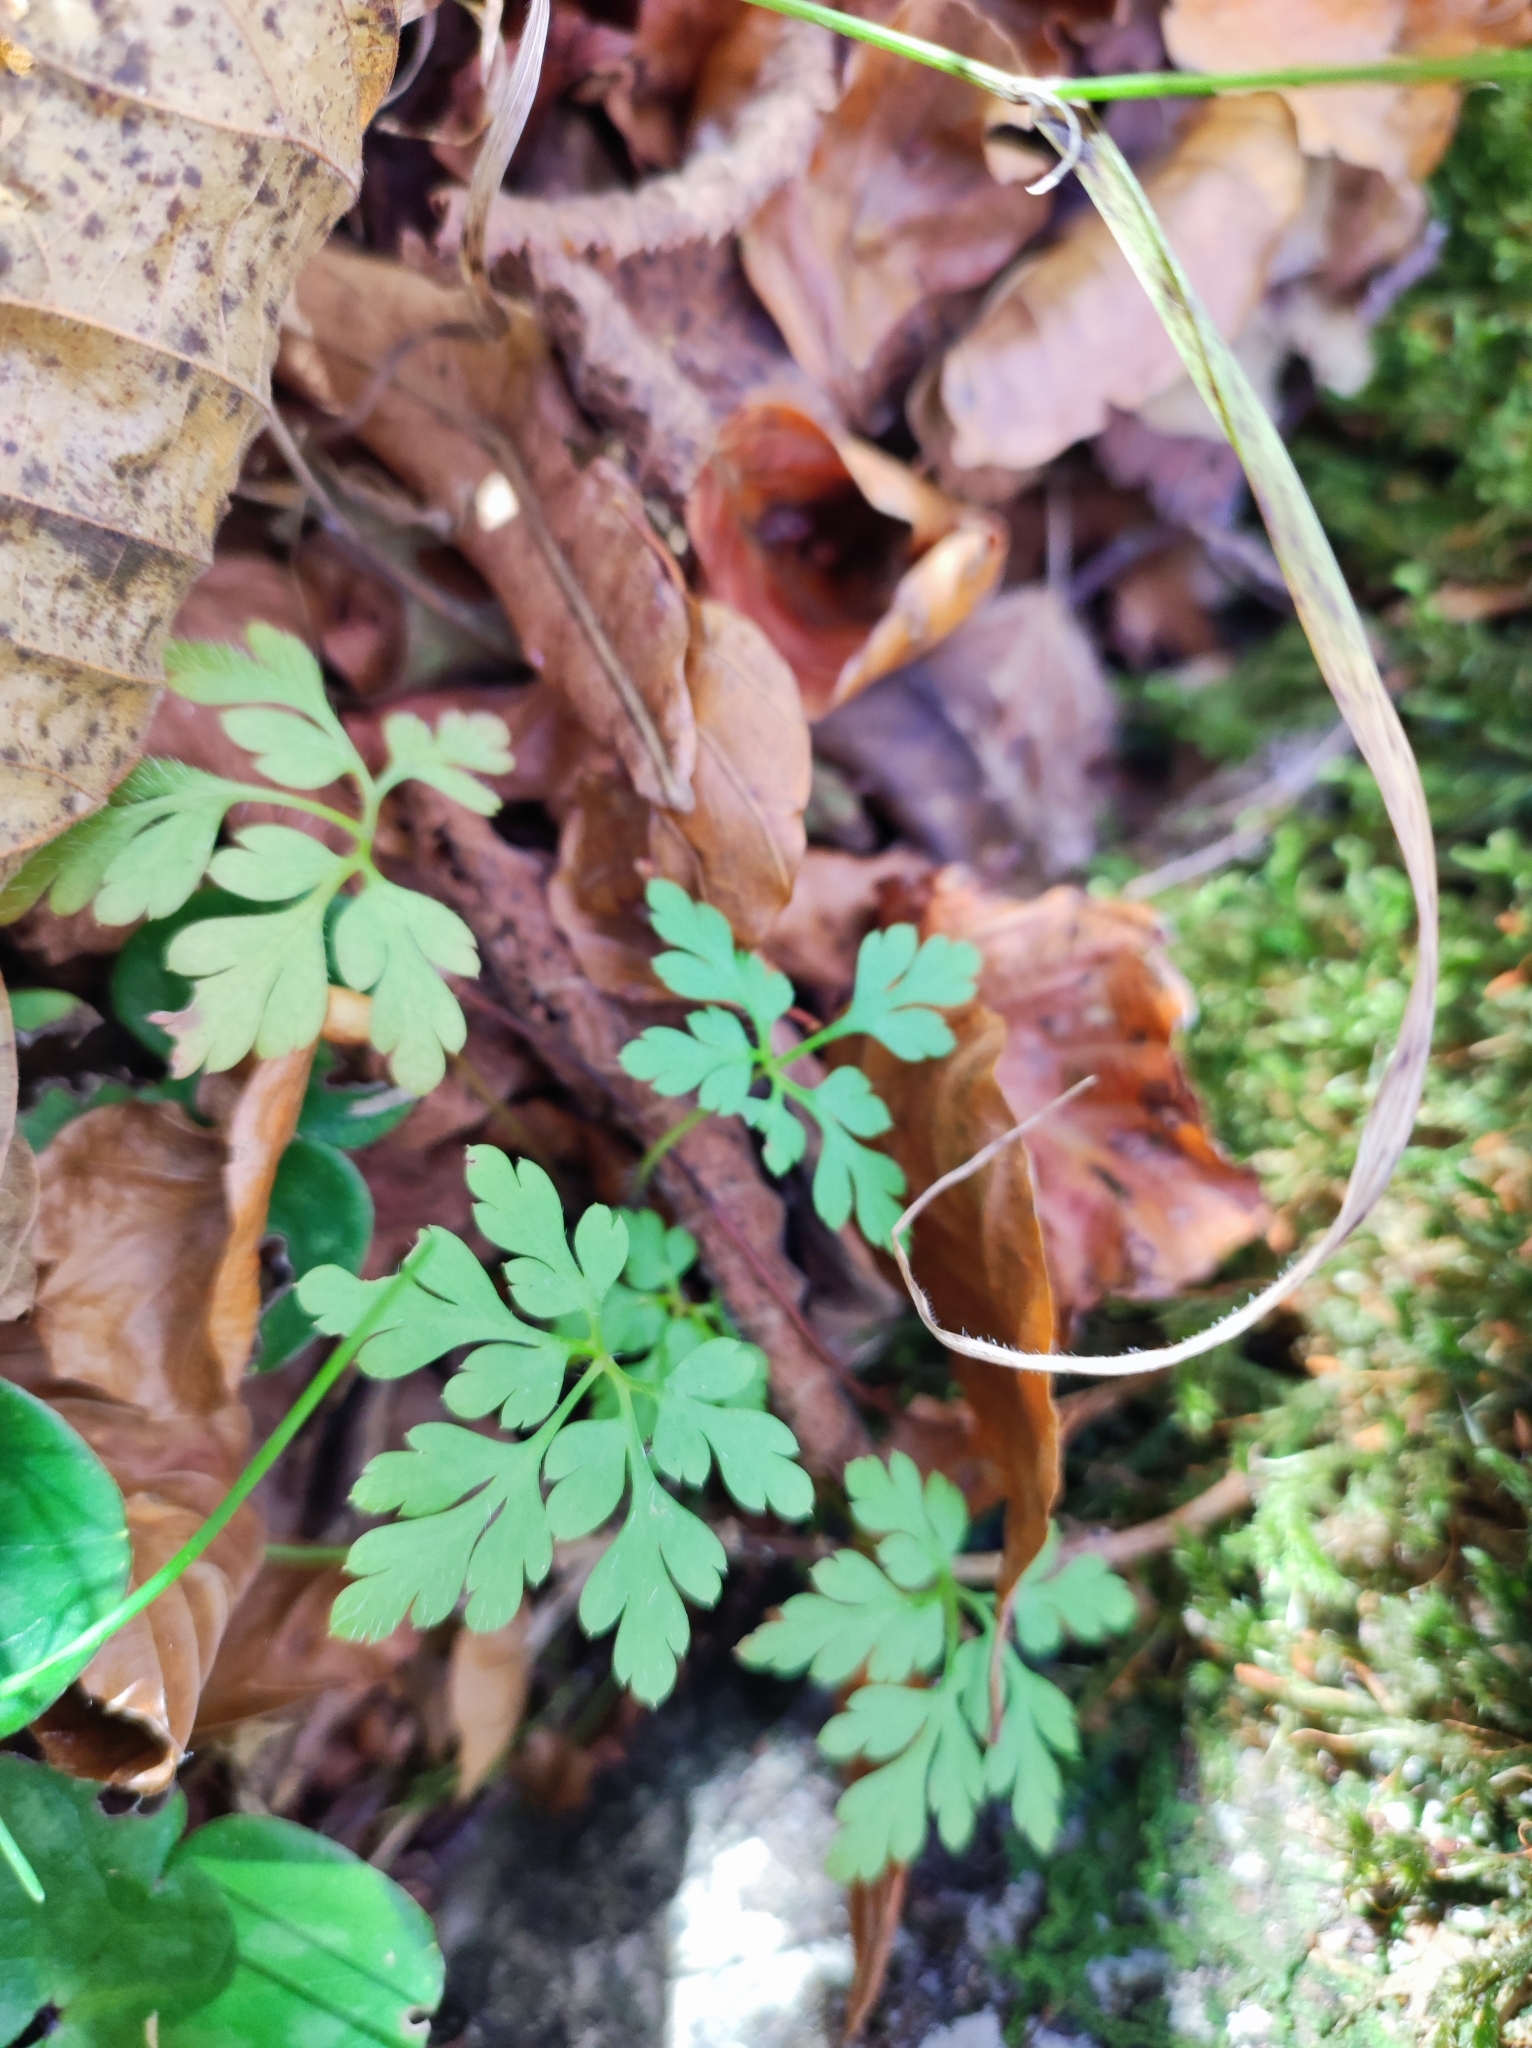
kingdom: Plantae
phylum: Tracheophyta
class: Magnoliopsida
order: Geraniales
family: Geraniaceae
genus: Geranium
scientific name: Geranium robertianum
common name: Herb-robert
